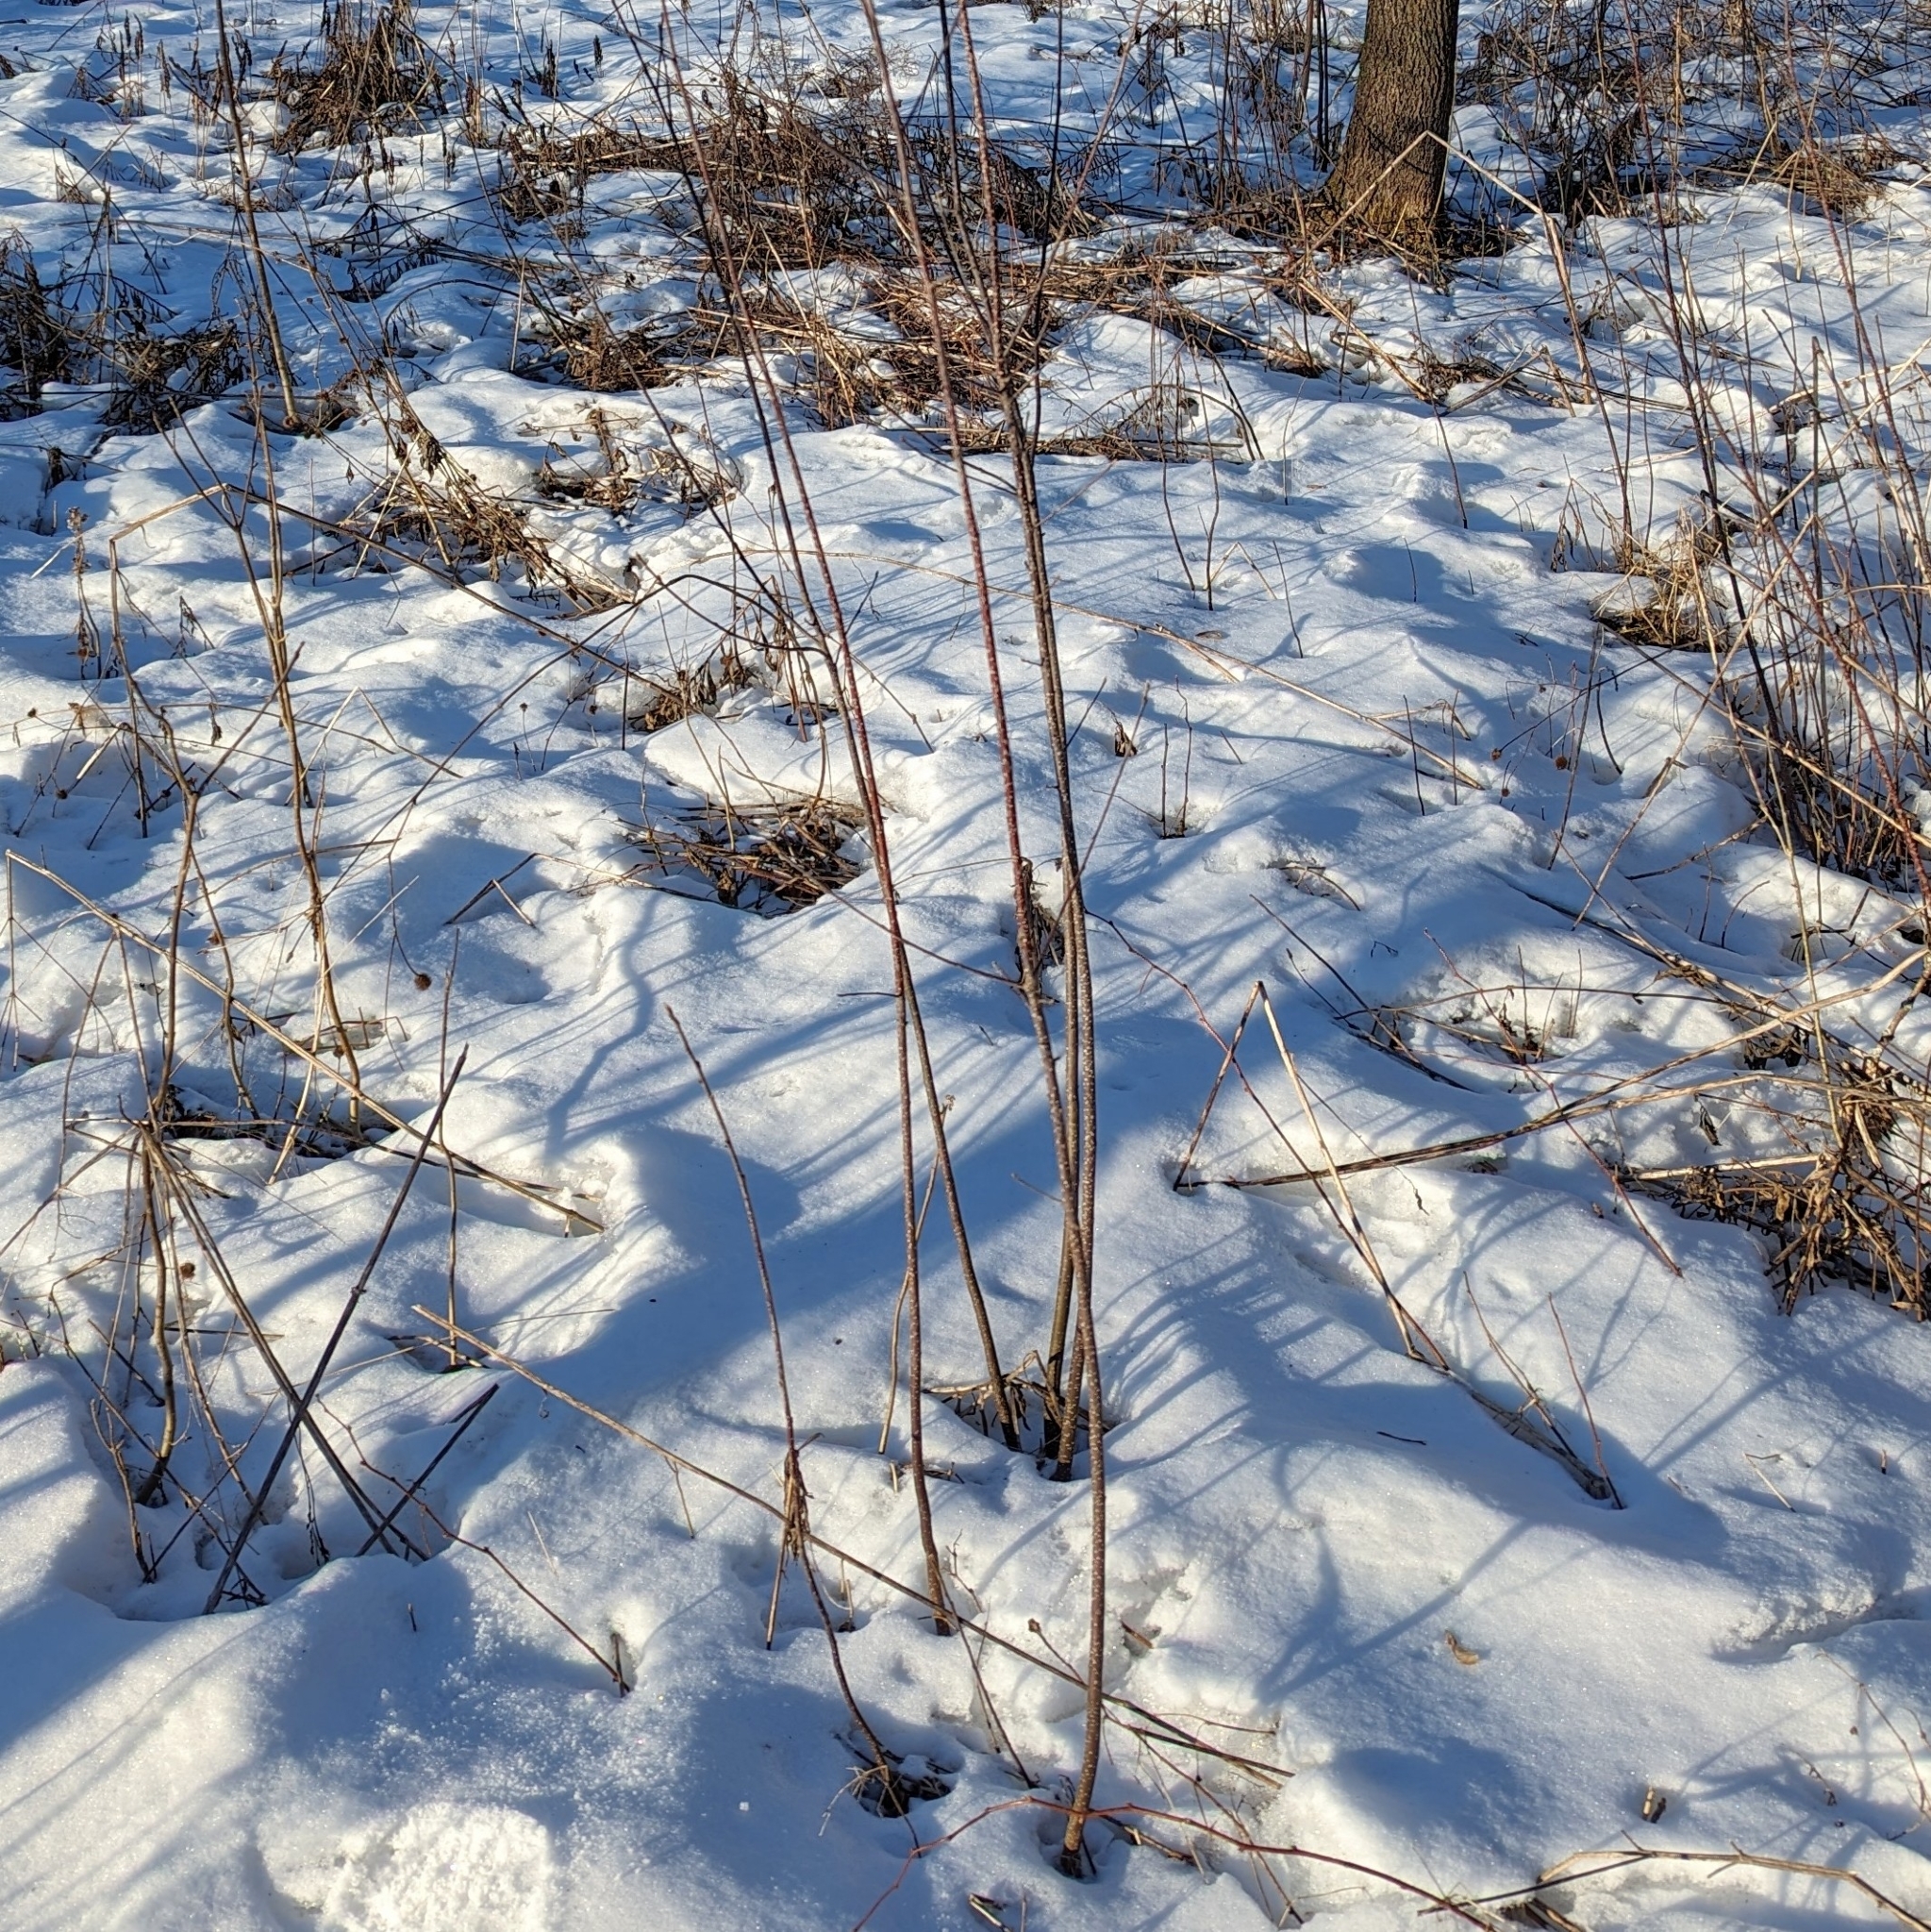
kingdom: Plantae
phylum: Tracheophyta
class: Magnoliopsida
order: Rosales
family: Rhamnaceae
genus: Frangula
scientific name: Frangula alnus
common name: Alder buckthorn
